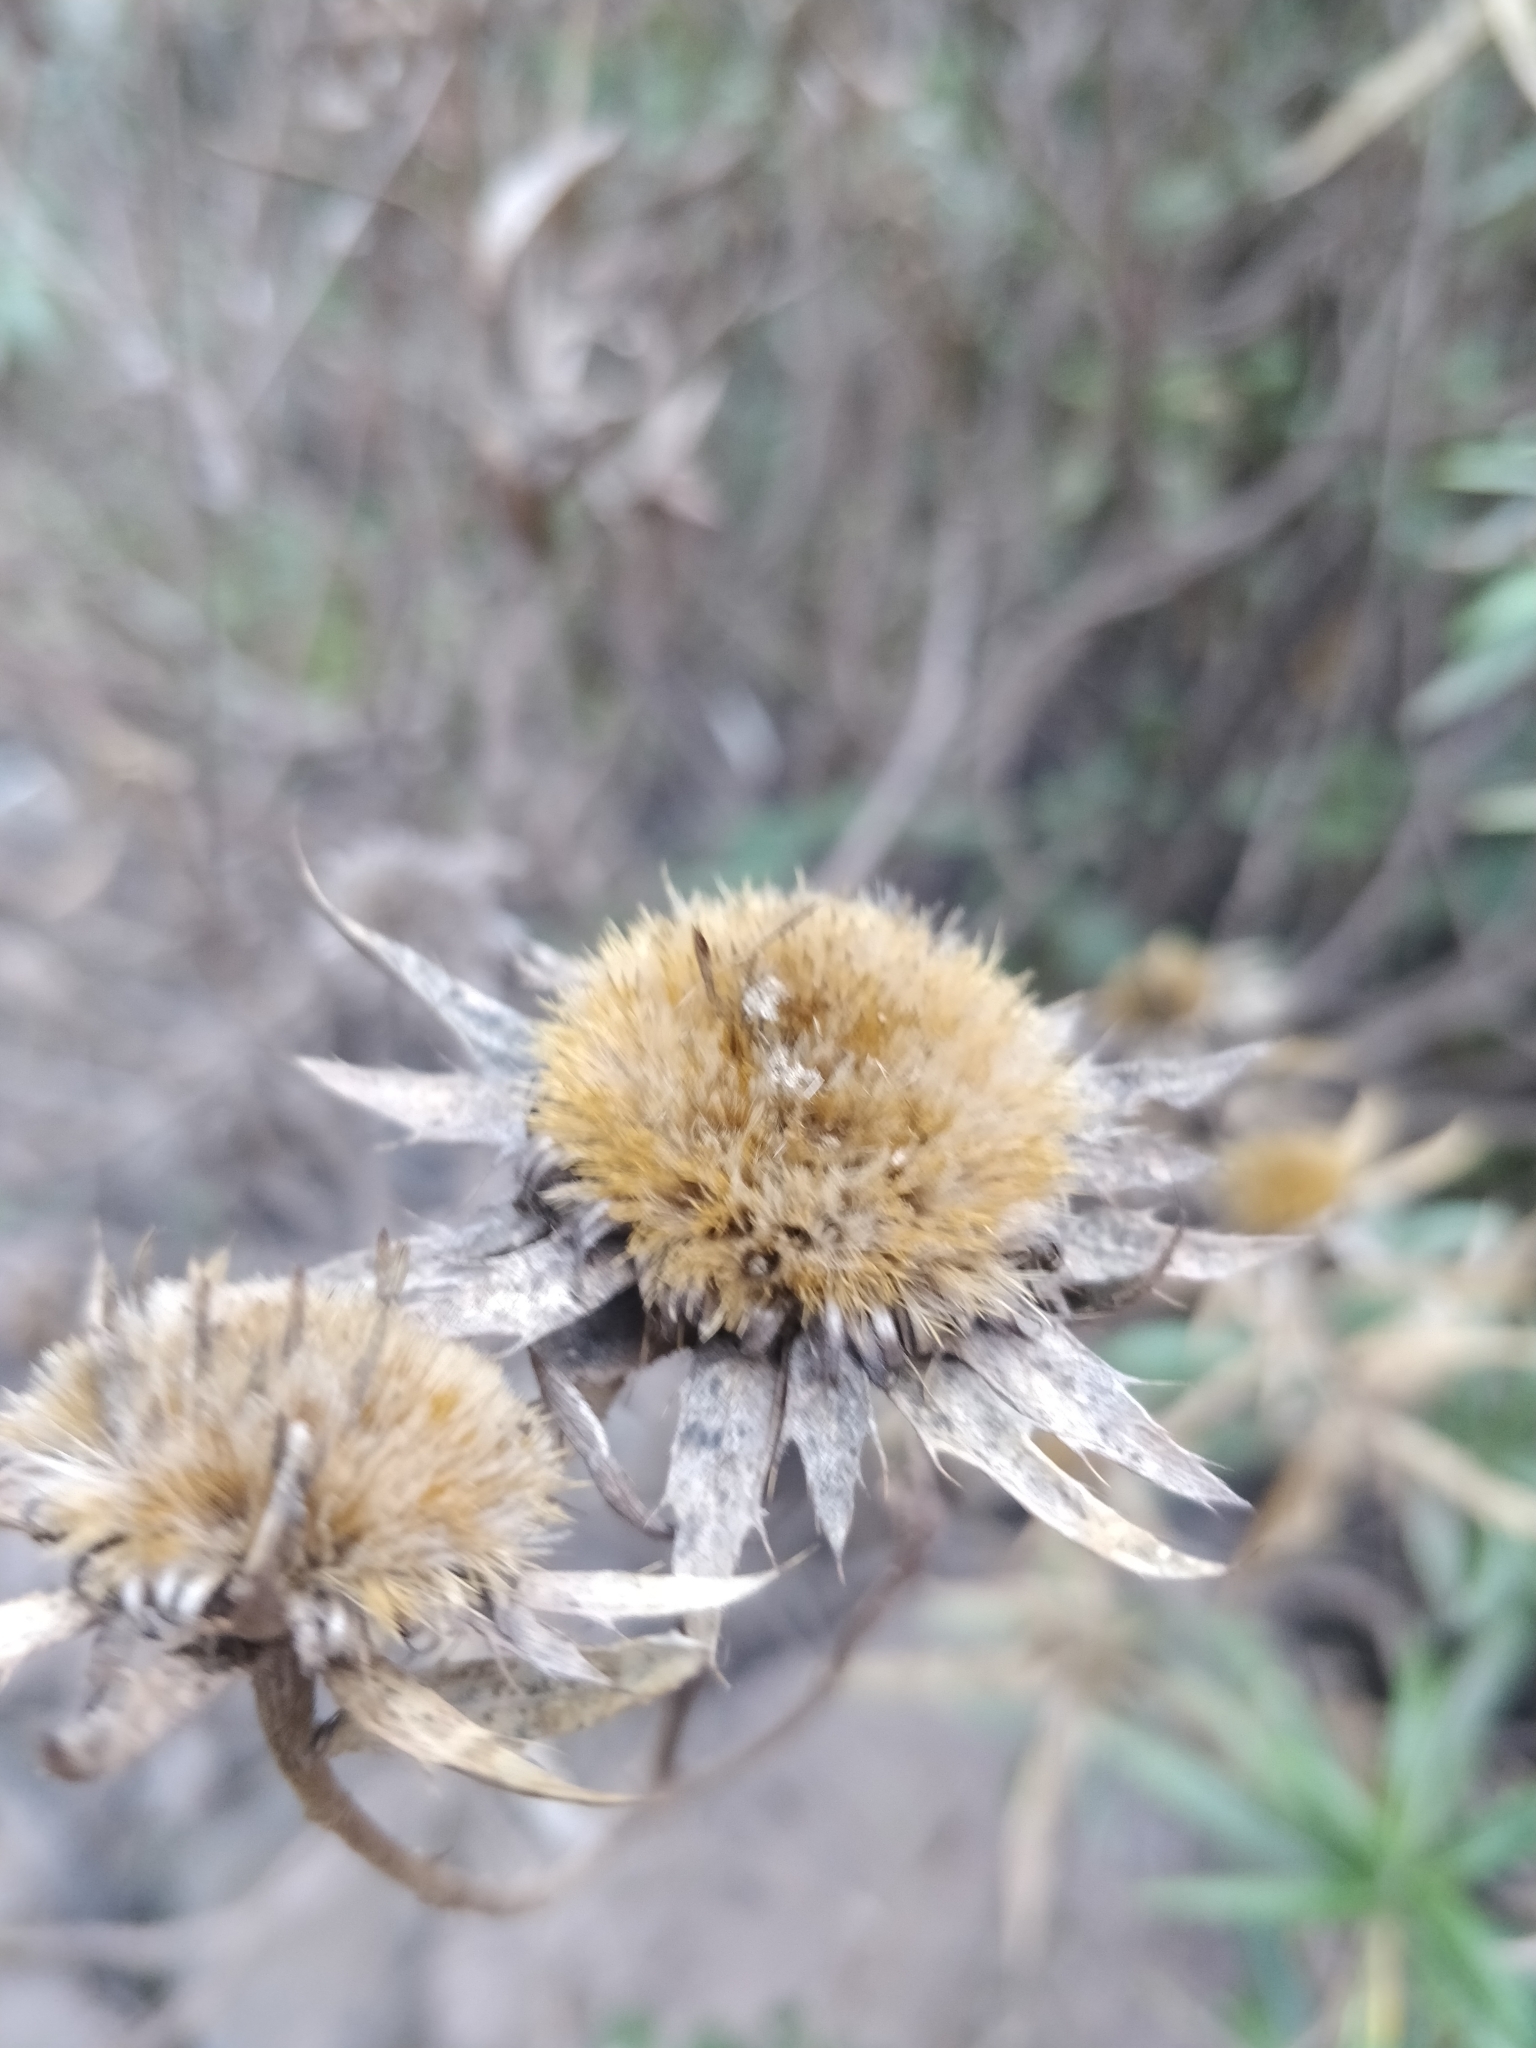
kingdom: Plantae
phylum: Tracheophyta
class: Magnoliopsida
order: Asterales
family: Asteraceae
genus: Carlina
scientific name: Carlina salicifolia
